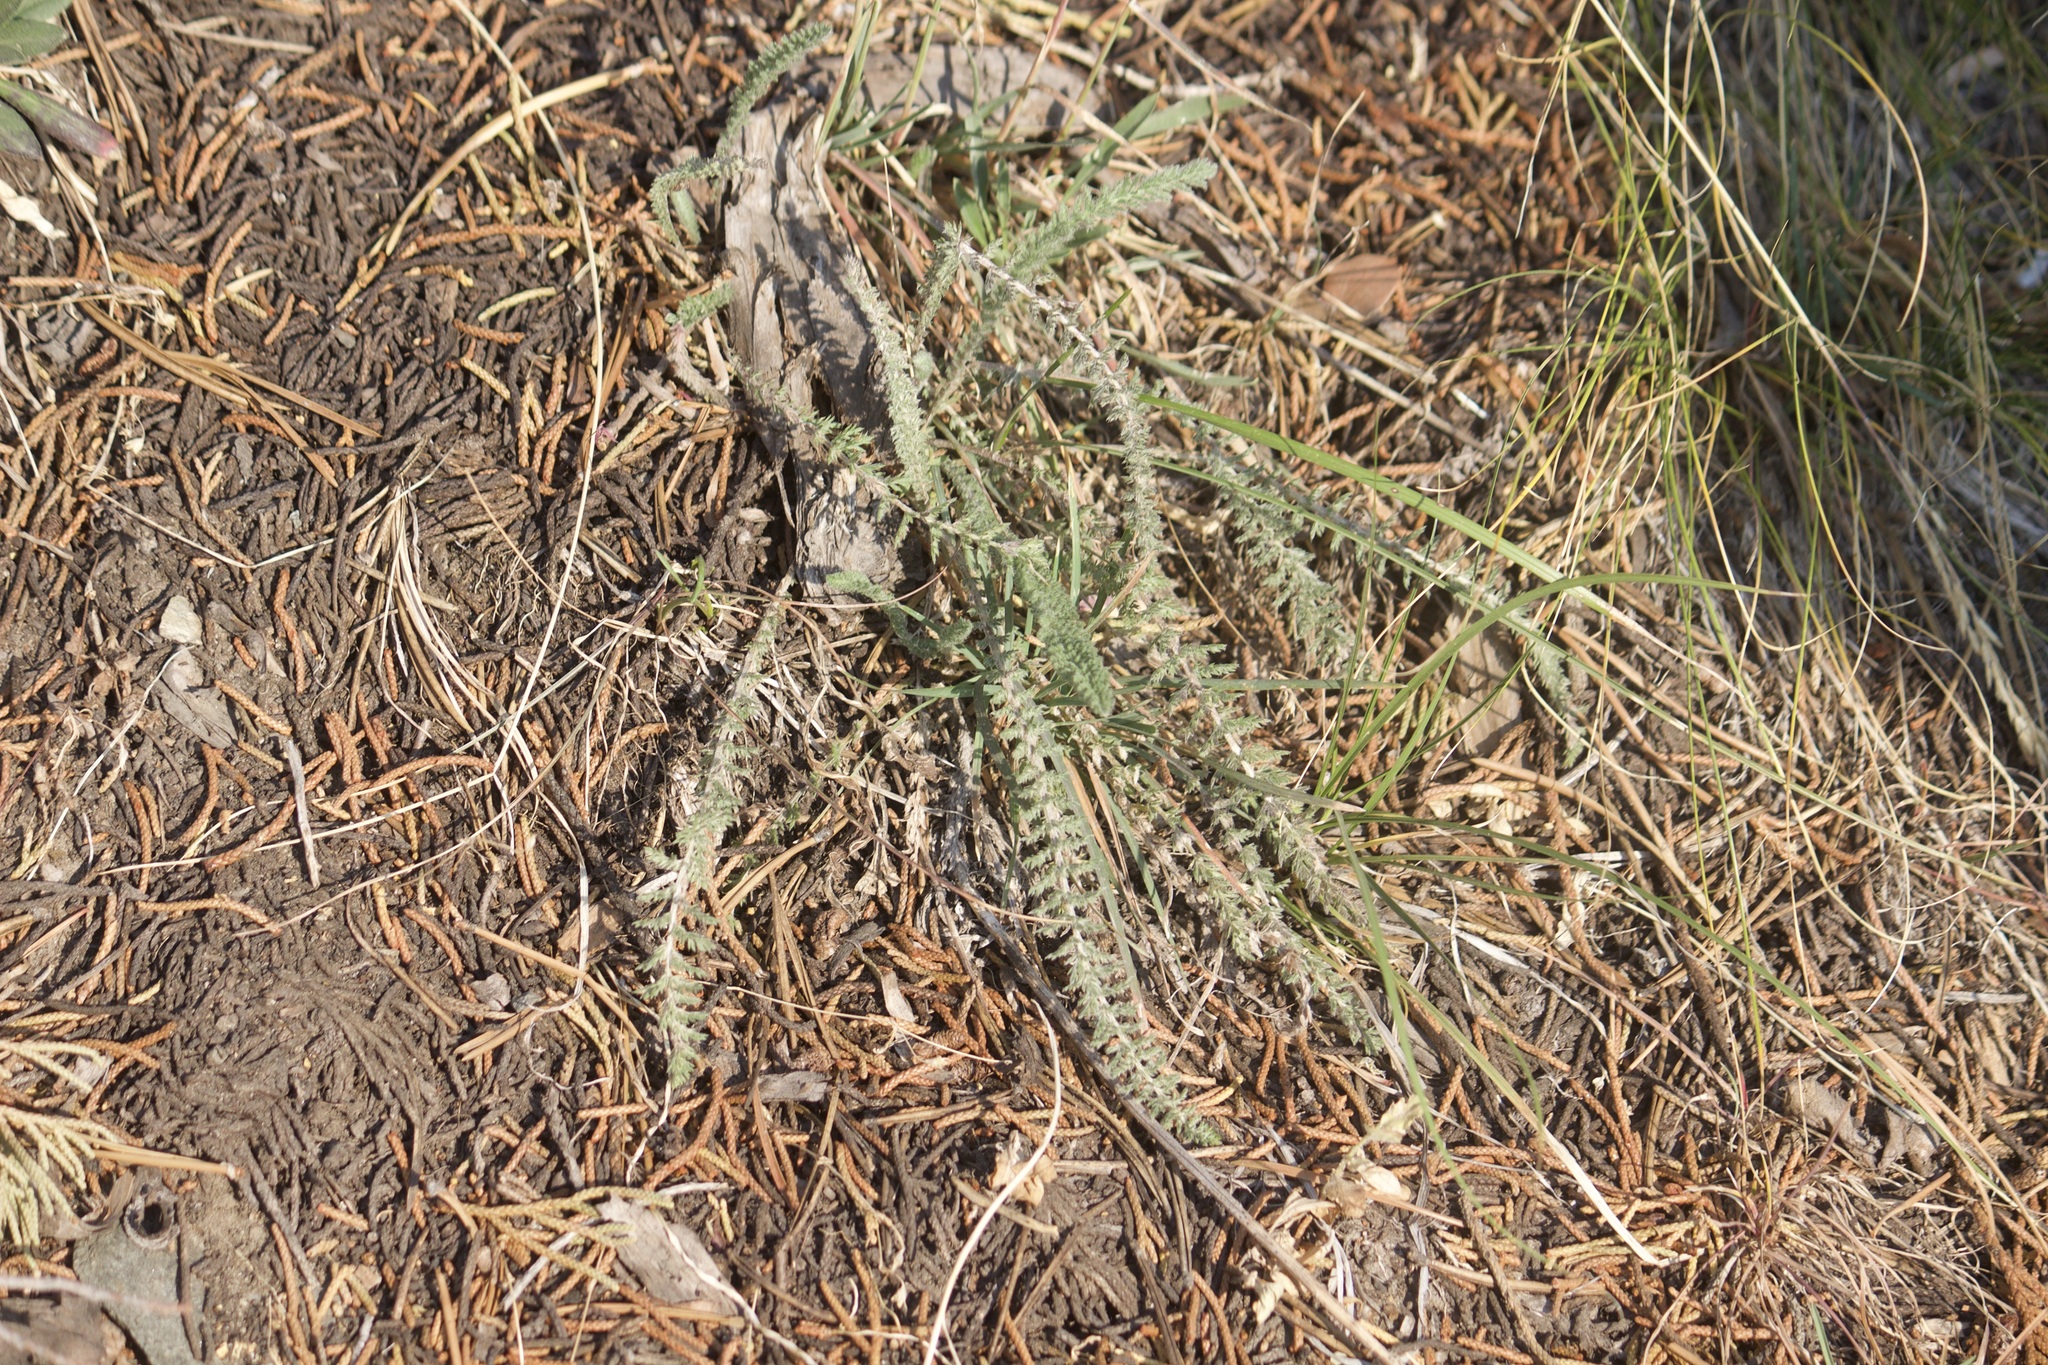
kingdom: Plantae
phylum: Tracheophyta
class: Magnoliopsida
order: Asterales
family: Asteraceae
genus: Achillea
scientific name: Achillea millefolium
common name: Yarrow
